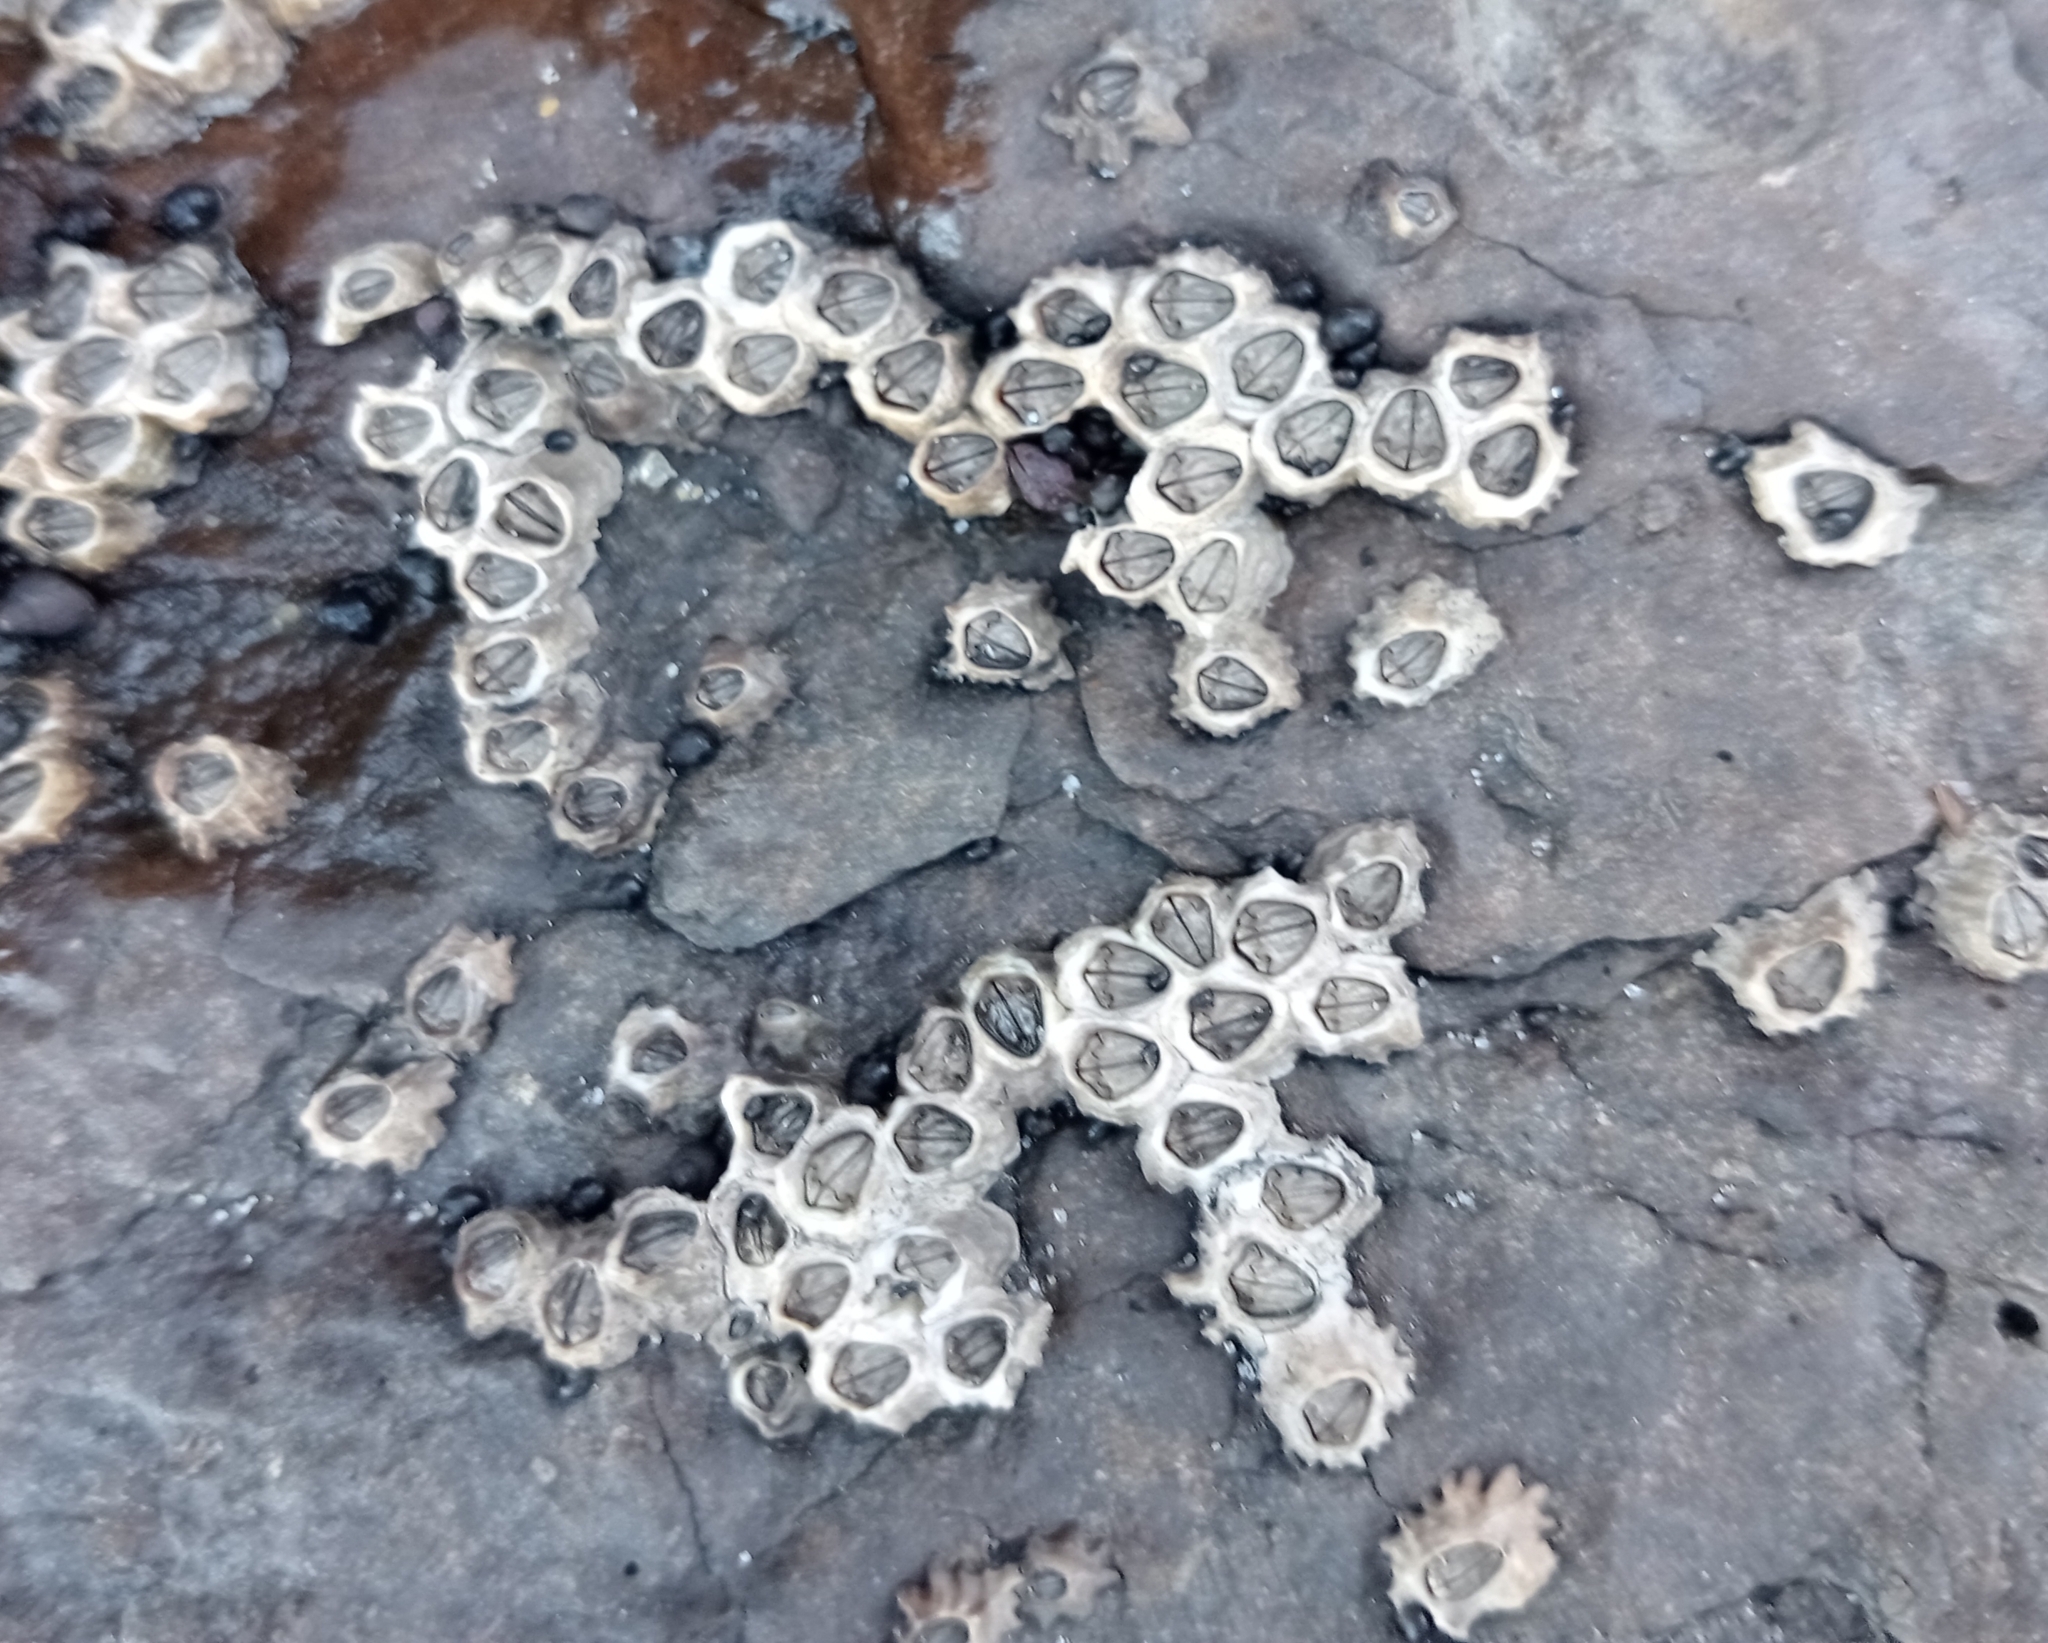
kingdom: Animalia
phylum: Arthropoda
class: Maxillopoda
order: Sessilia
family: Chthamalidae
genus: Chamaesipho
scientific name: Chamaesipho columna
